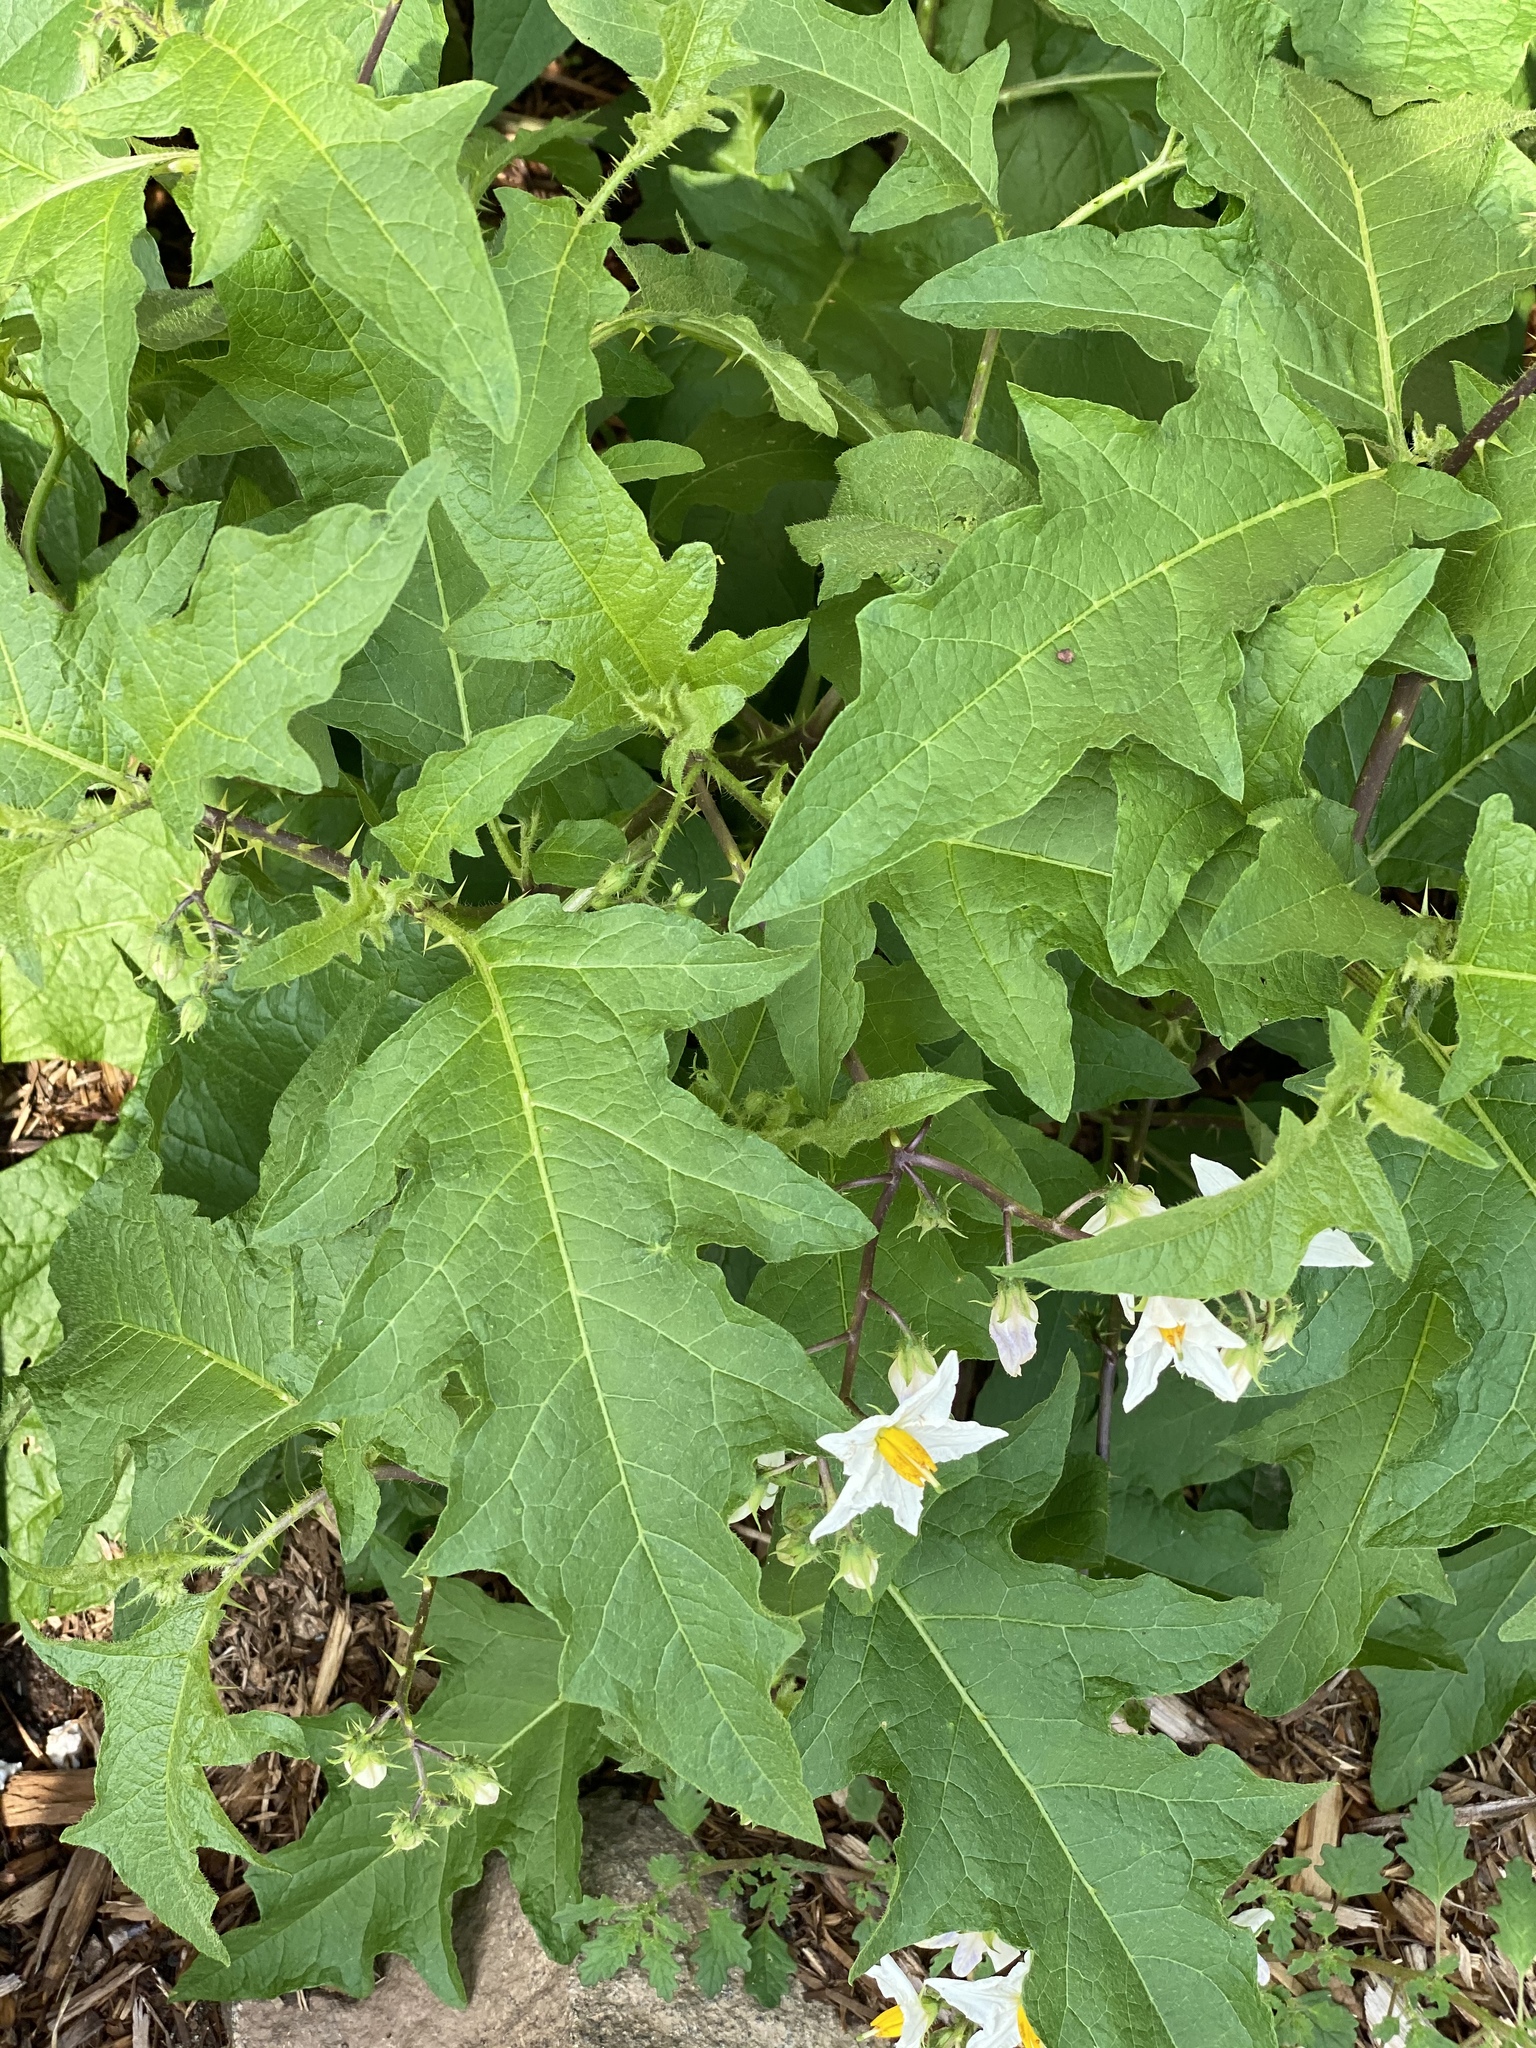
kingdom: Plantae
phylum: Tracheophyta
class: Magnoliopsida
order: Solanales
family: Solanaceae
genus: Solanum
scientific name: Solanum carolinense
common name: Horse-nettle
